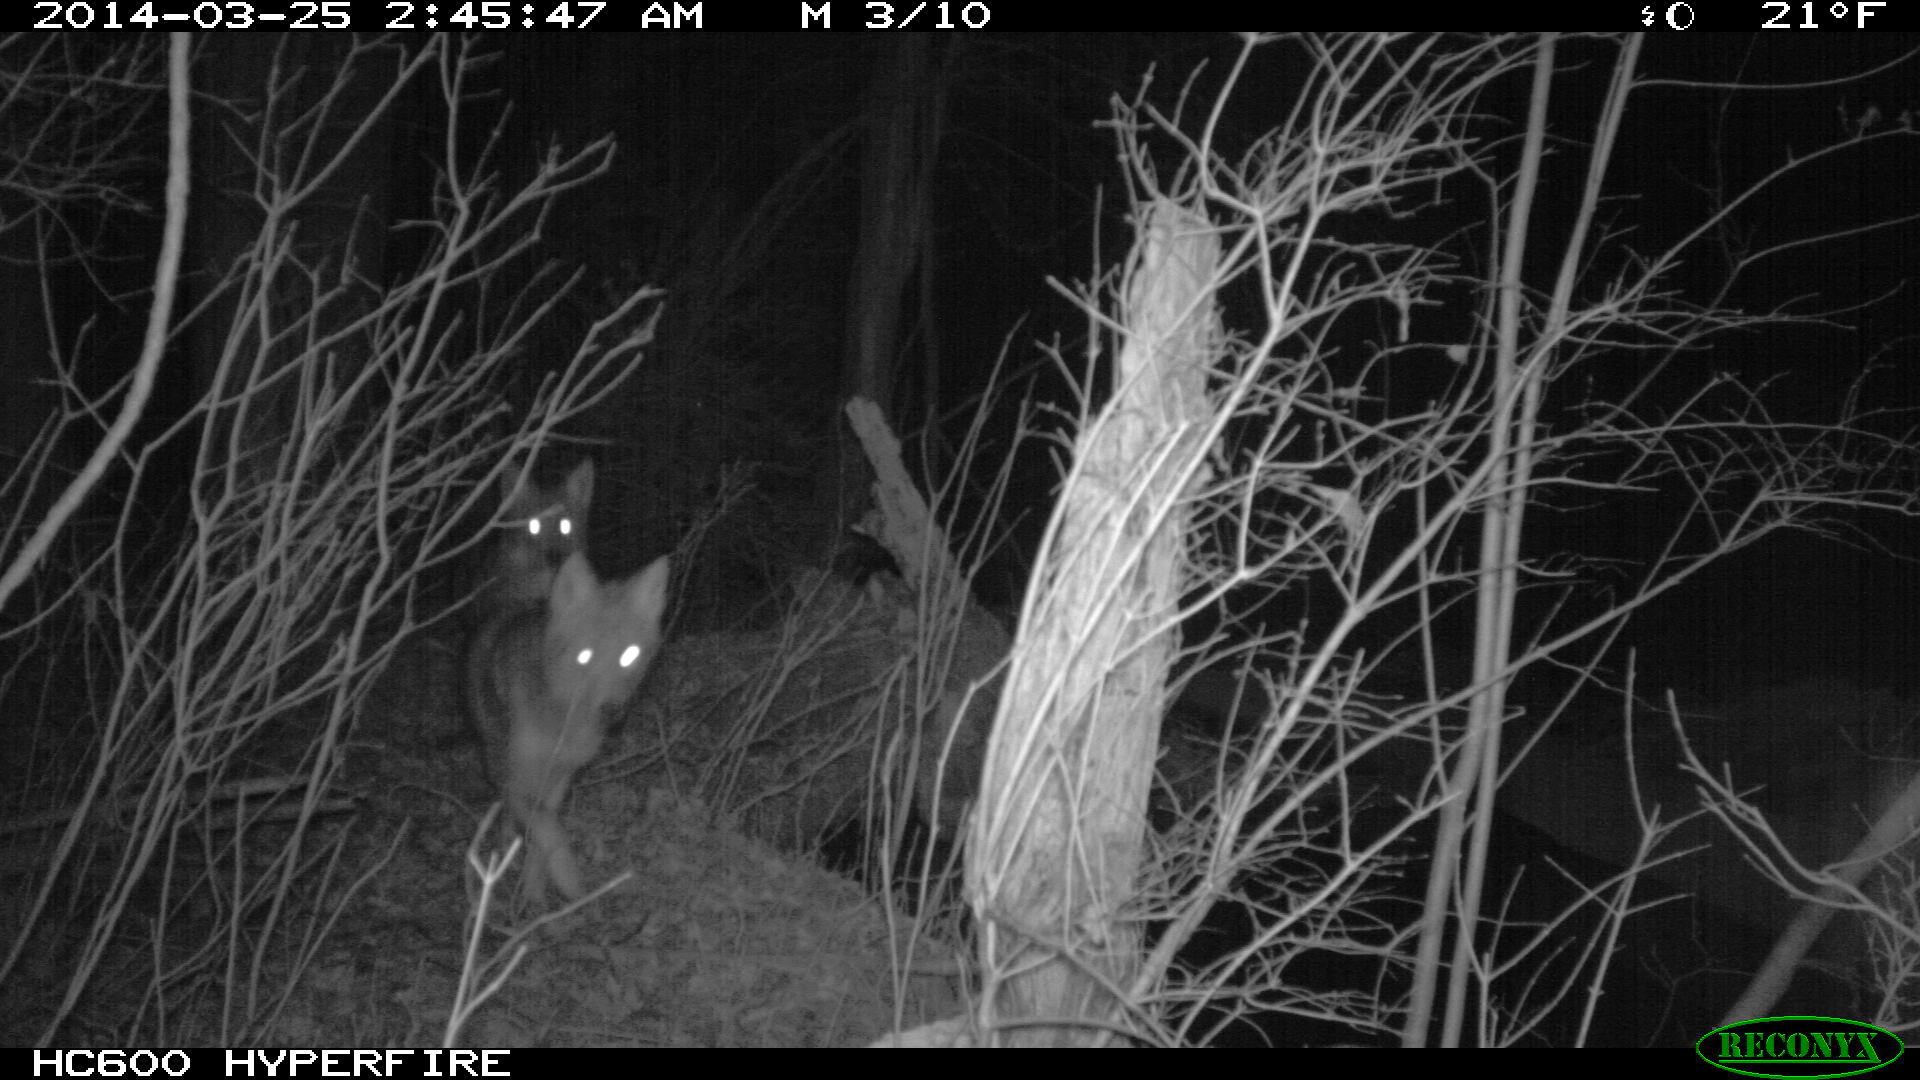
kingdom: Animalia
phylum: Chordata
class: Mammalia
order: Carnivora
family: Canidae
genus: Canis
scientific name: Canis latrans
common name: Coyote
